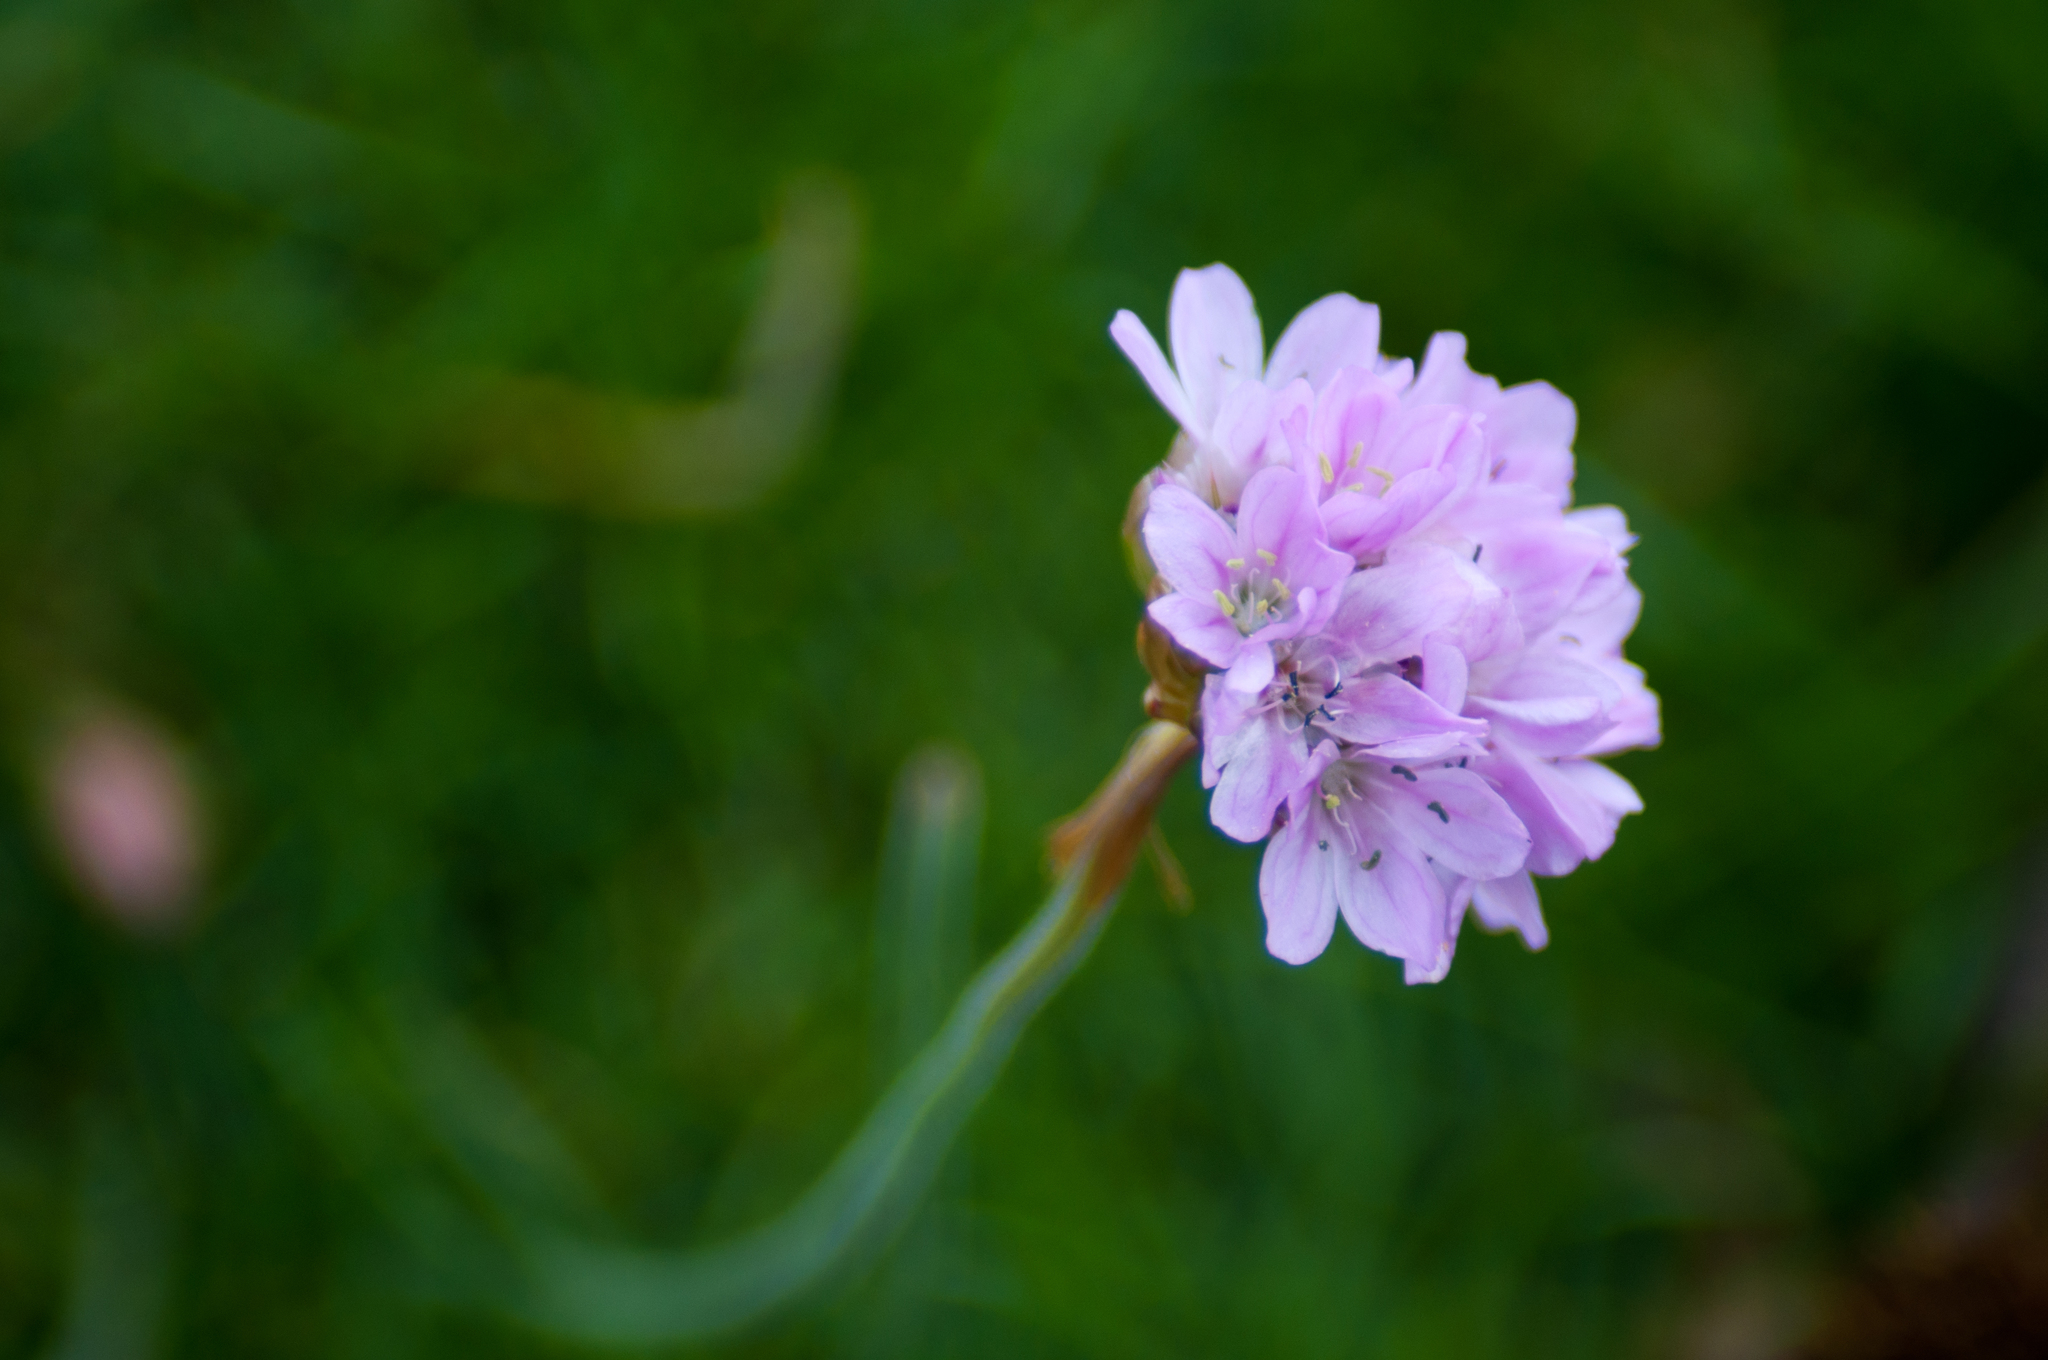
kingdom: Plantae
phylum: Tracheophyta
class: Magnoliopsida
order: Caryophyllales
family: Plumbaginaceae
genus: Armeria
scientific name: Armeria maritima
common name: Thrift
